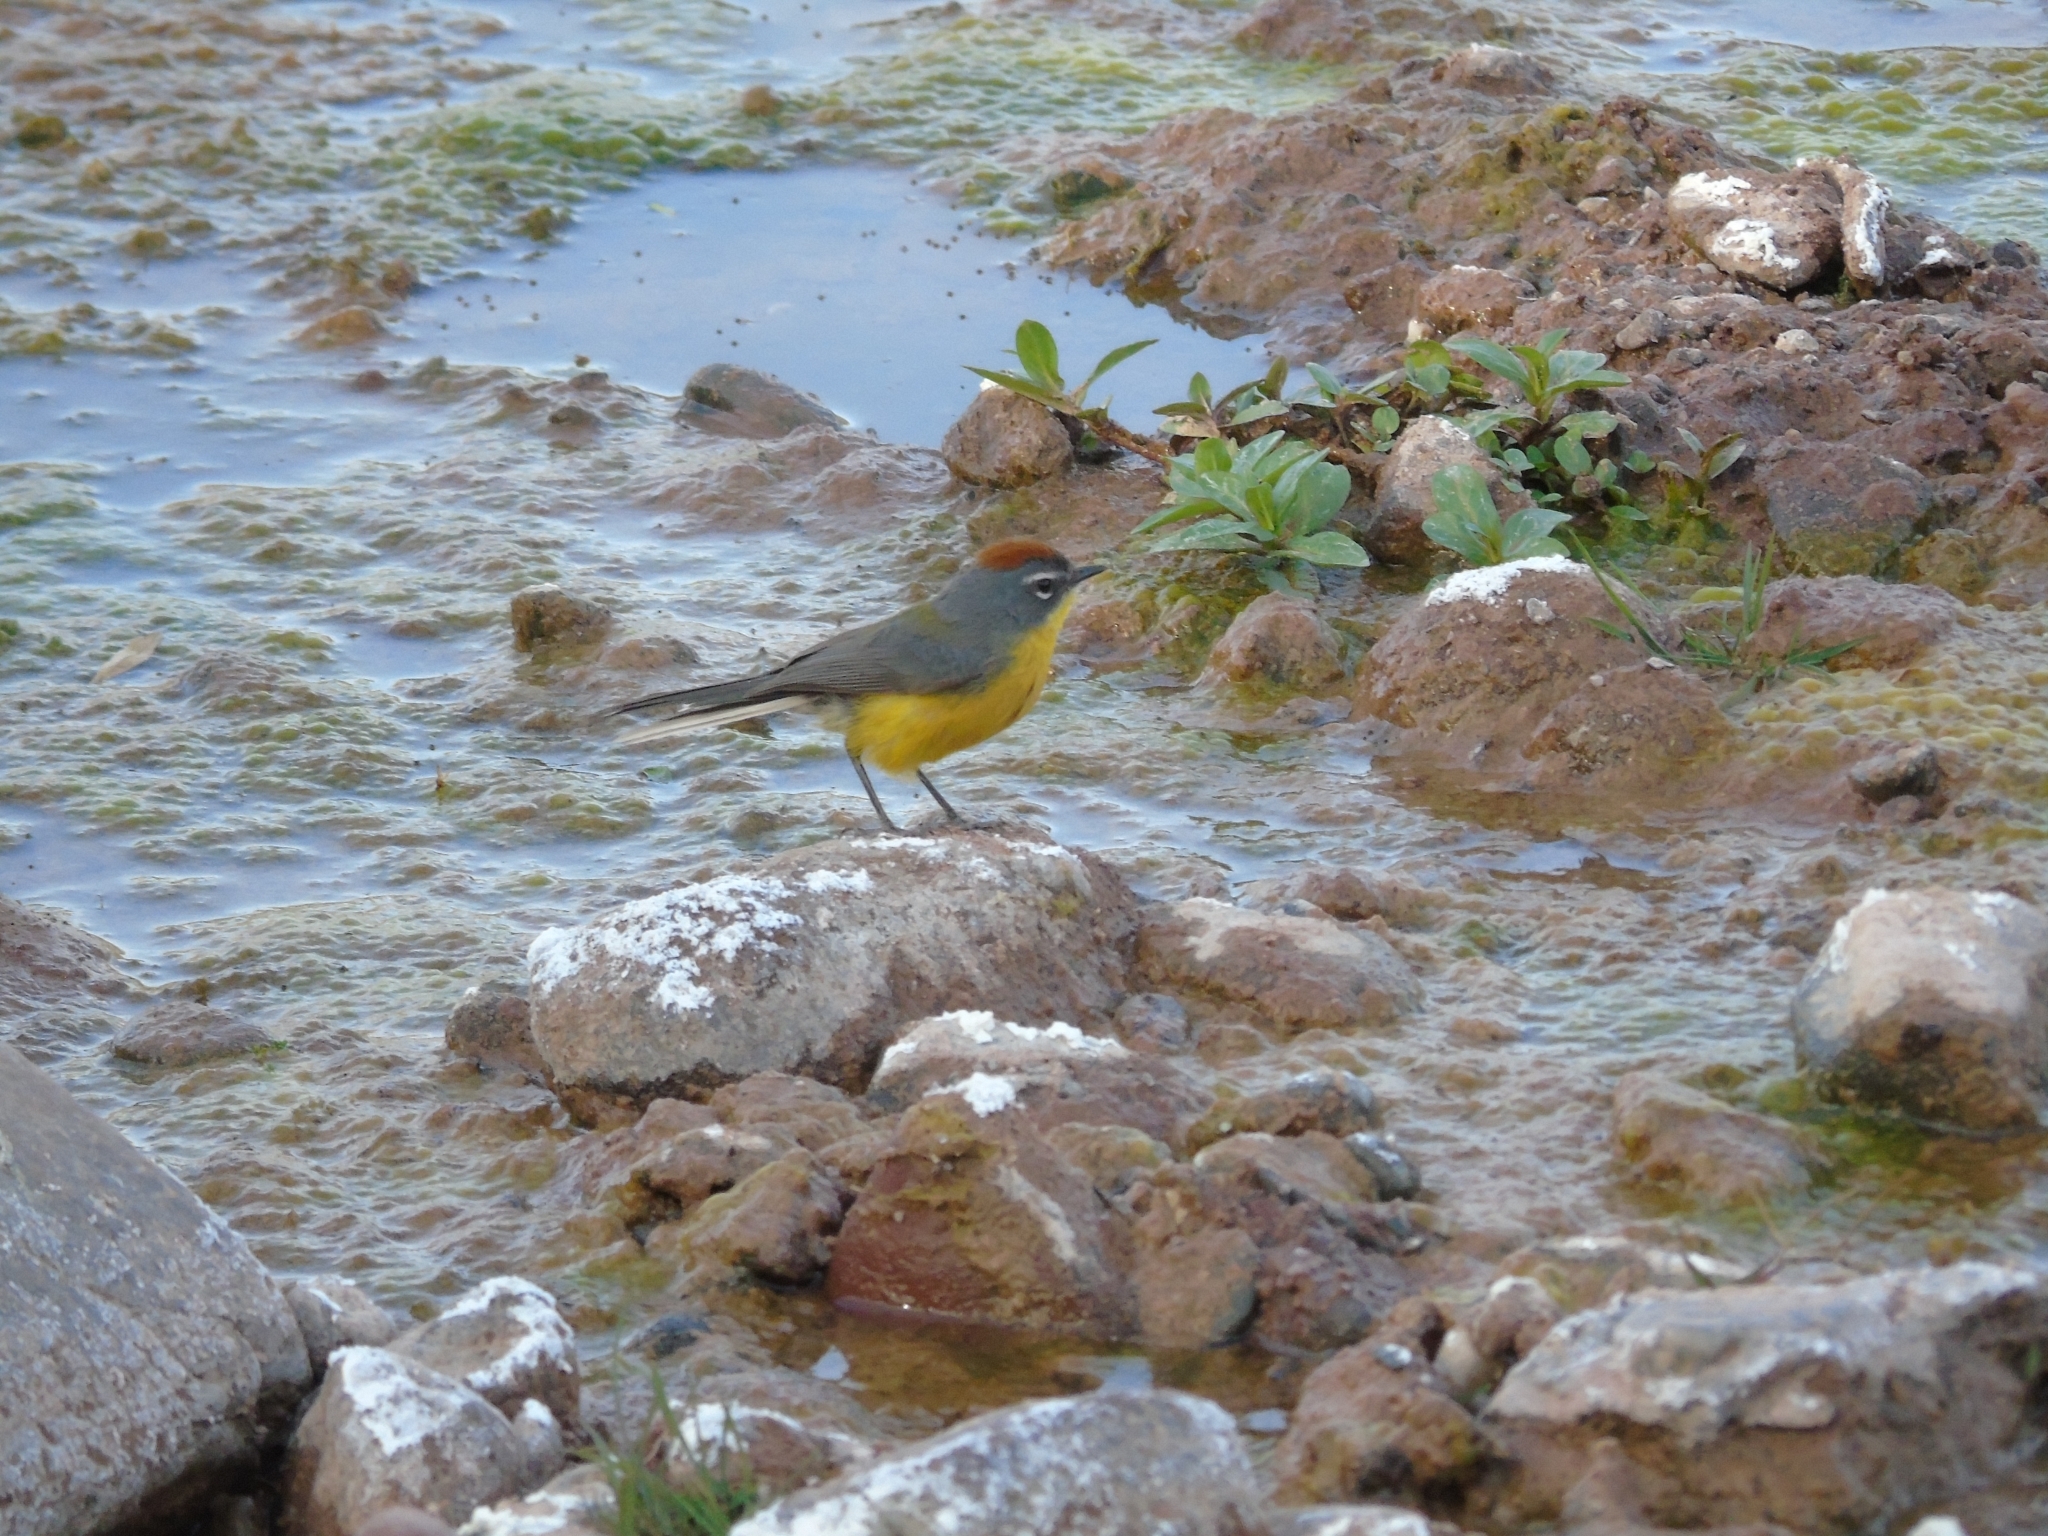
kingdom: Animalia
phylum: Chordata
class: Aves
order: Passeriformes
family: Parulidae
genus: Myioborus
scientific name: Myioborus brunniceps
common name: Brown-capped whitestart
